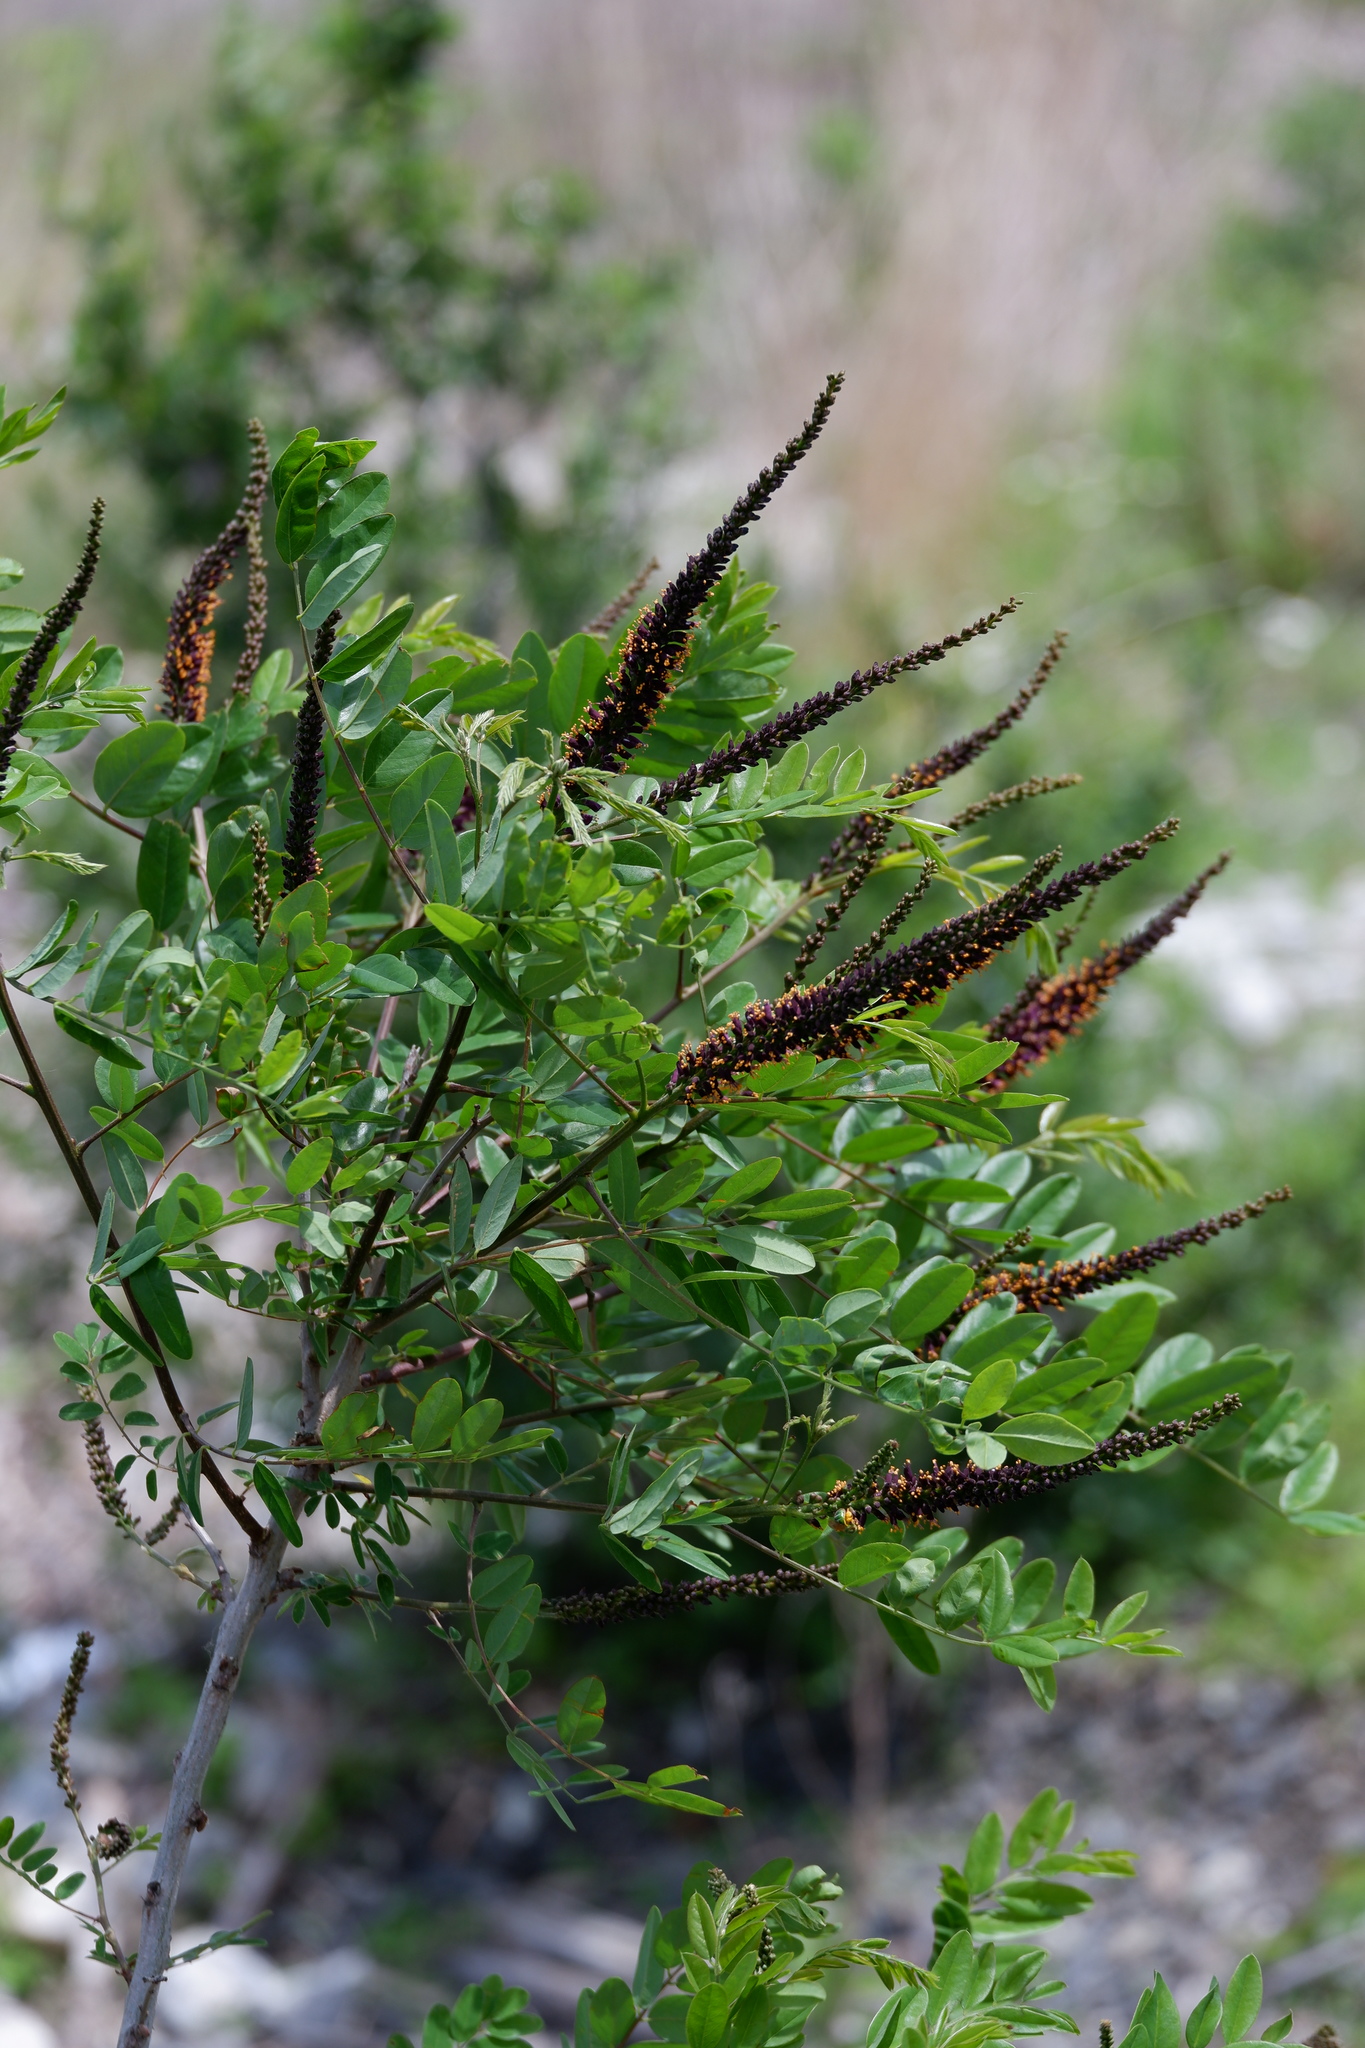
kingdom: Plantae
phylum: Tracheophyta
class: Magnoliopsida
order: Fabales
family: Fabaceae
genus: Amorpha
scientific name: Amorpha fruticosa
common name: False indigo
